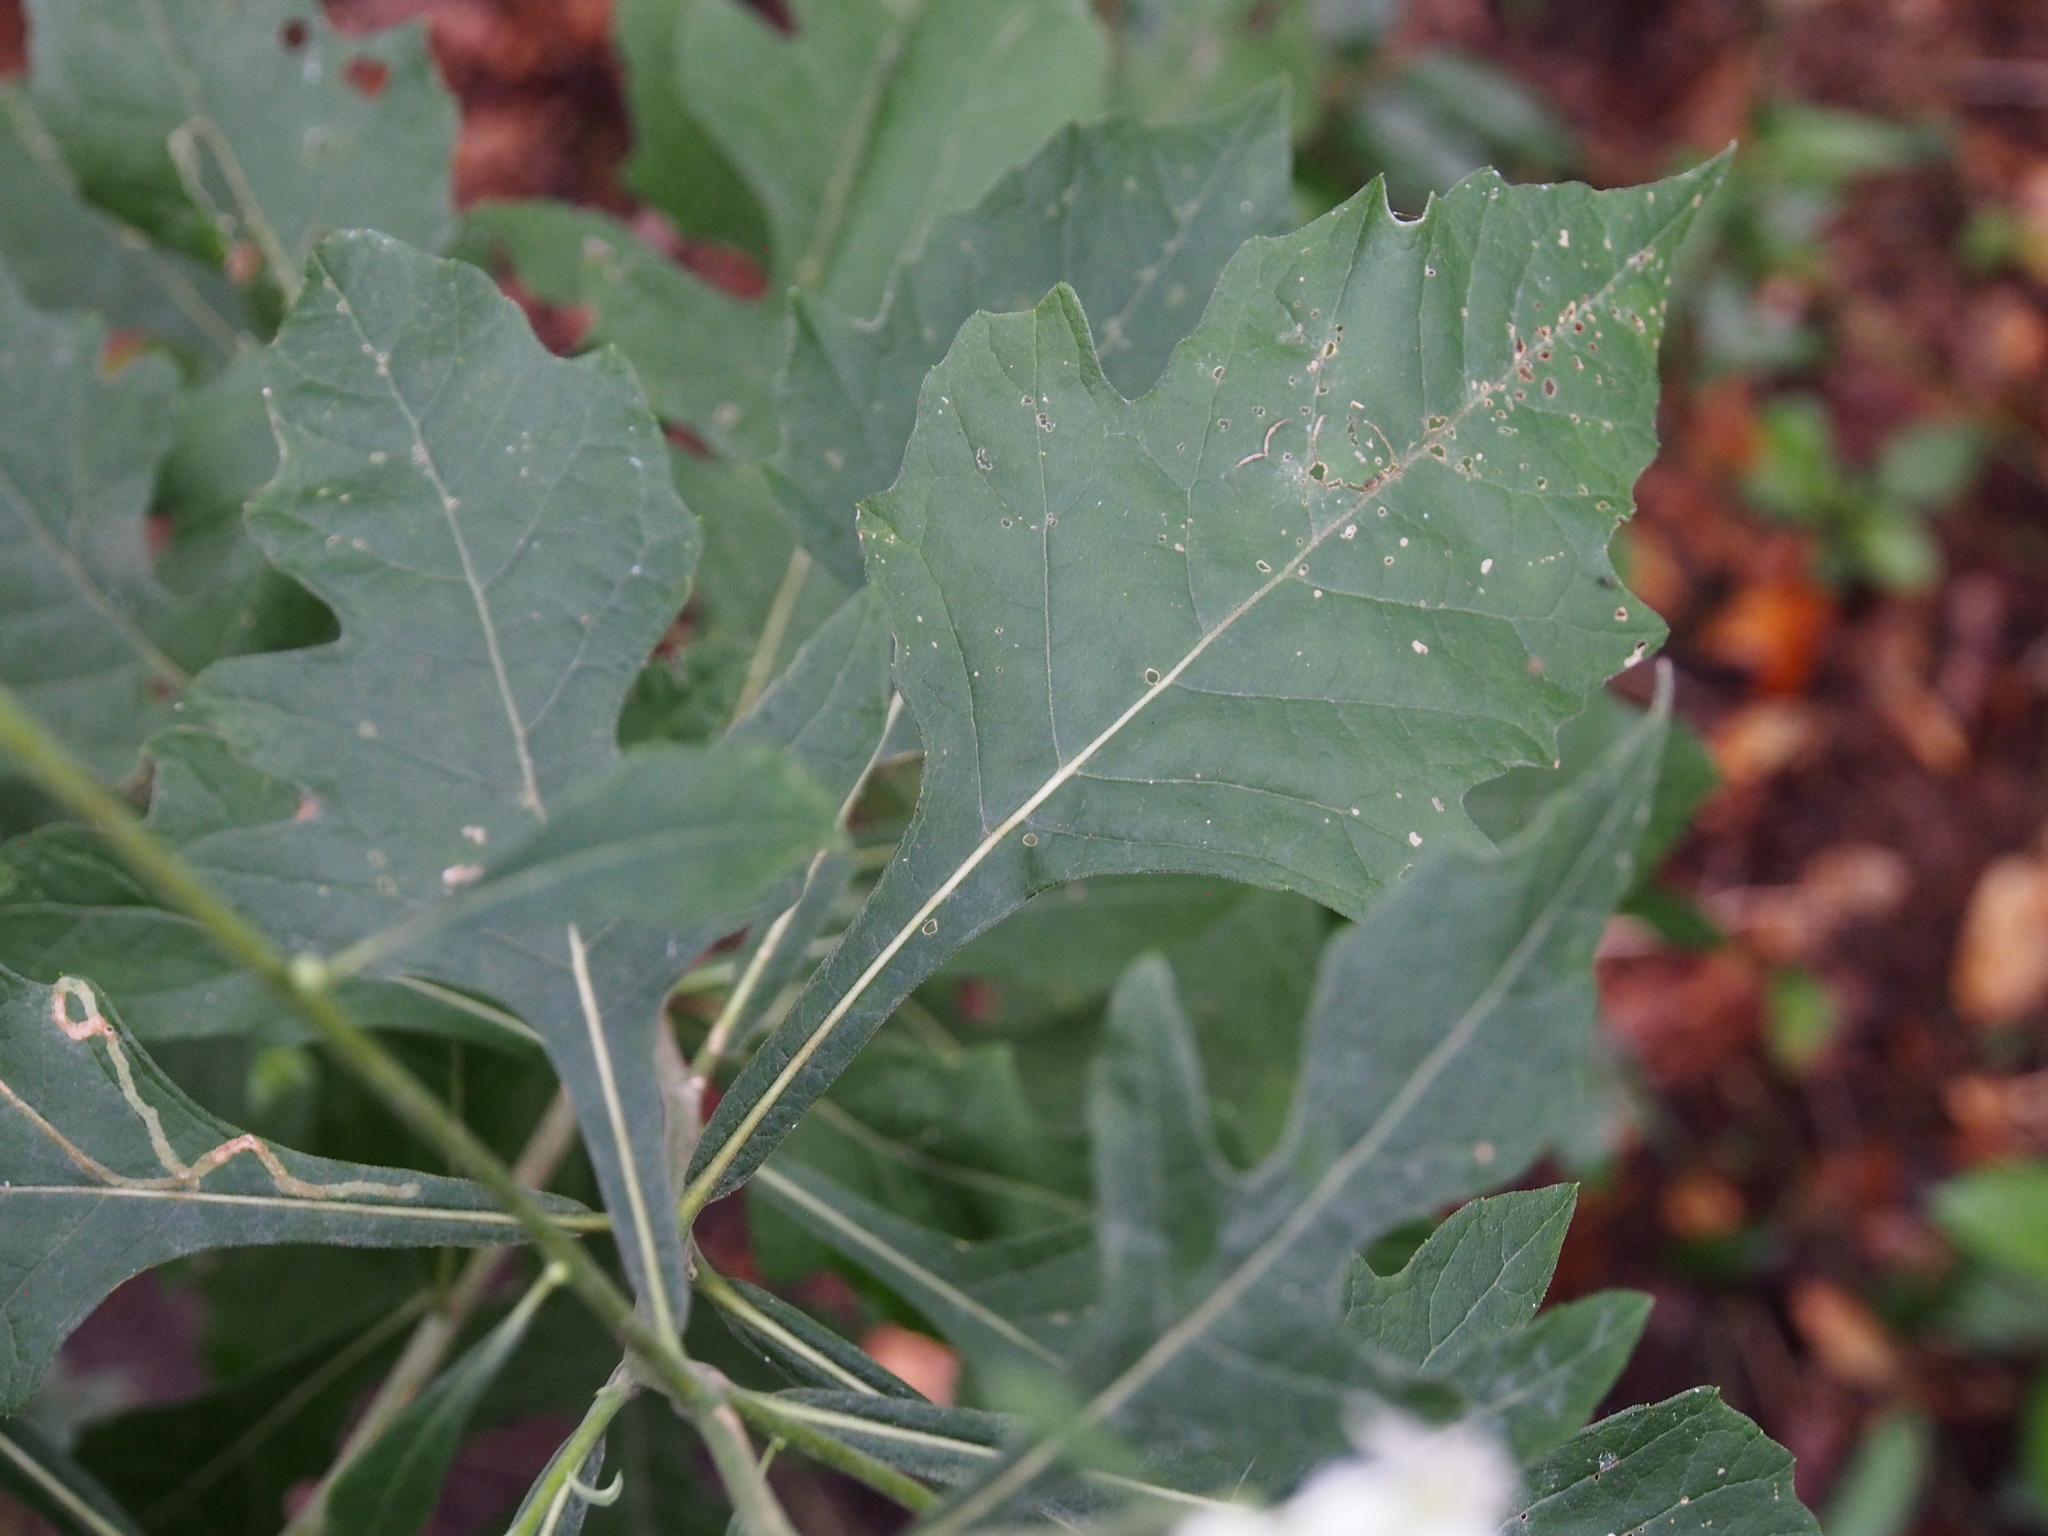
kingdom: Plantae
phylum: Tracheophyta
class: Magnoliopsida
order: Asterales
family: Asteraceae
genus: Verbesina
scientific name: Verbesina virginica
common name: Frostweed
